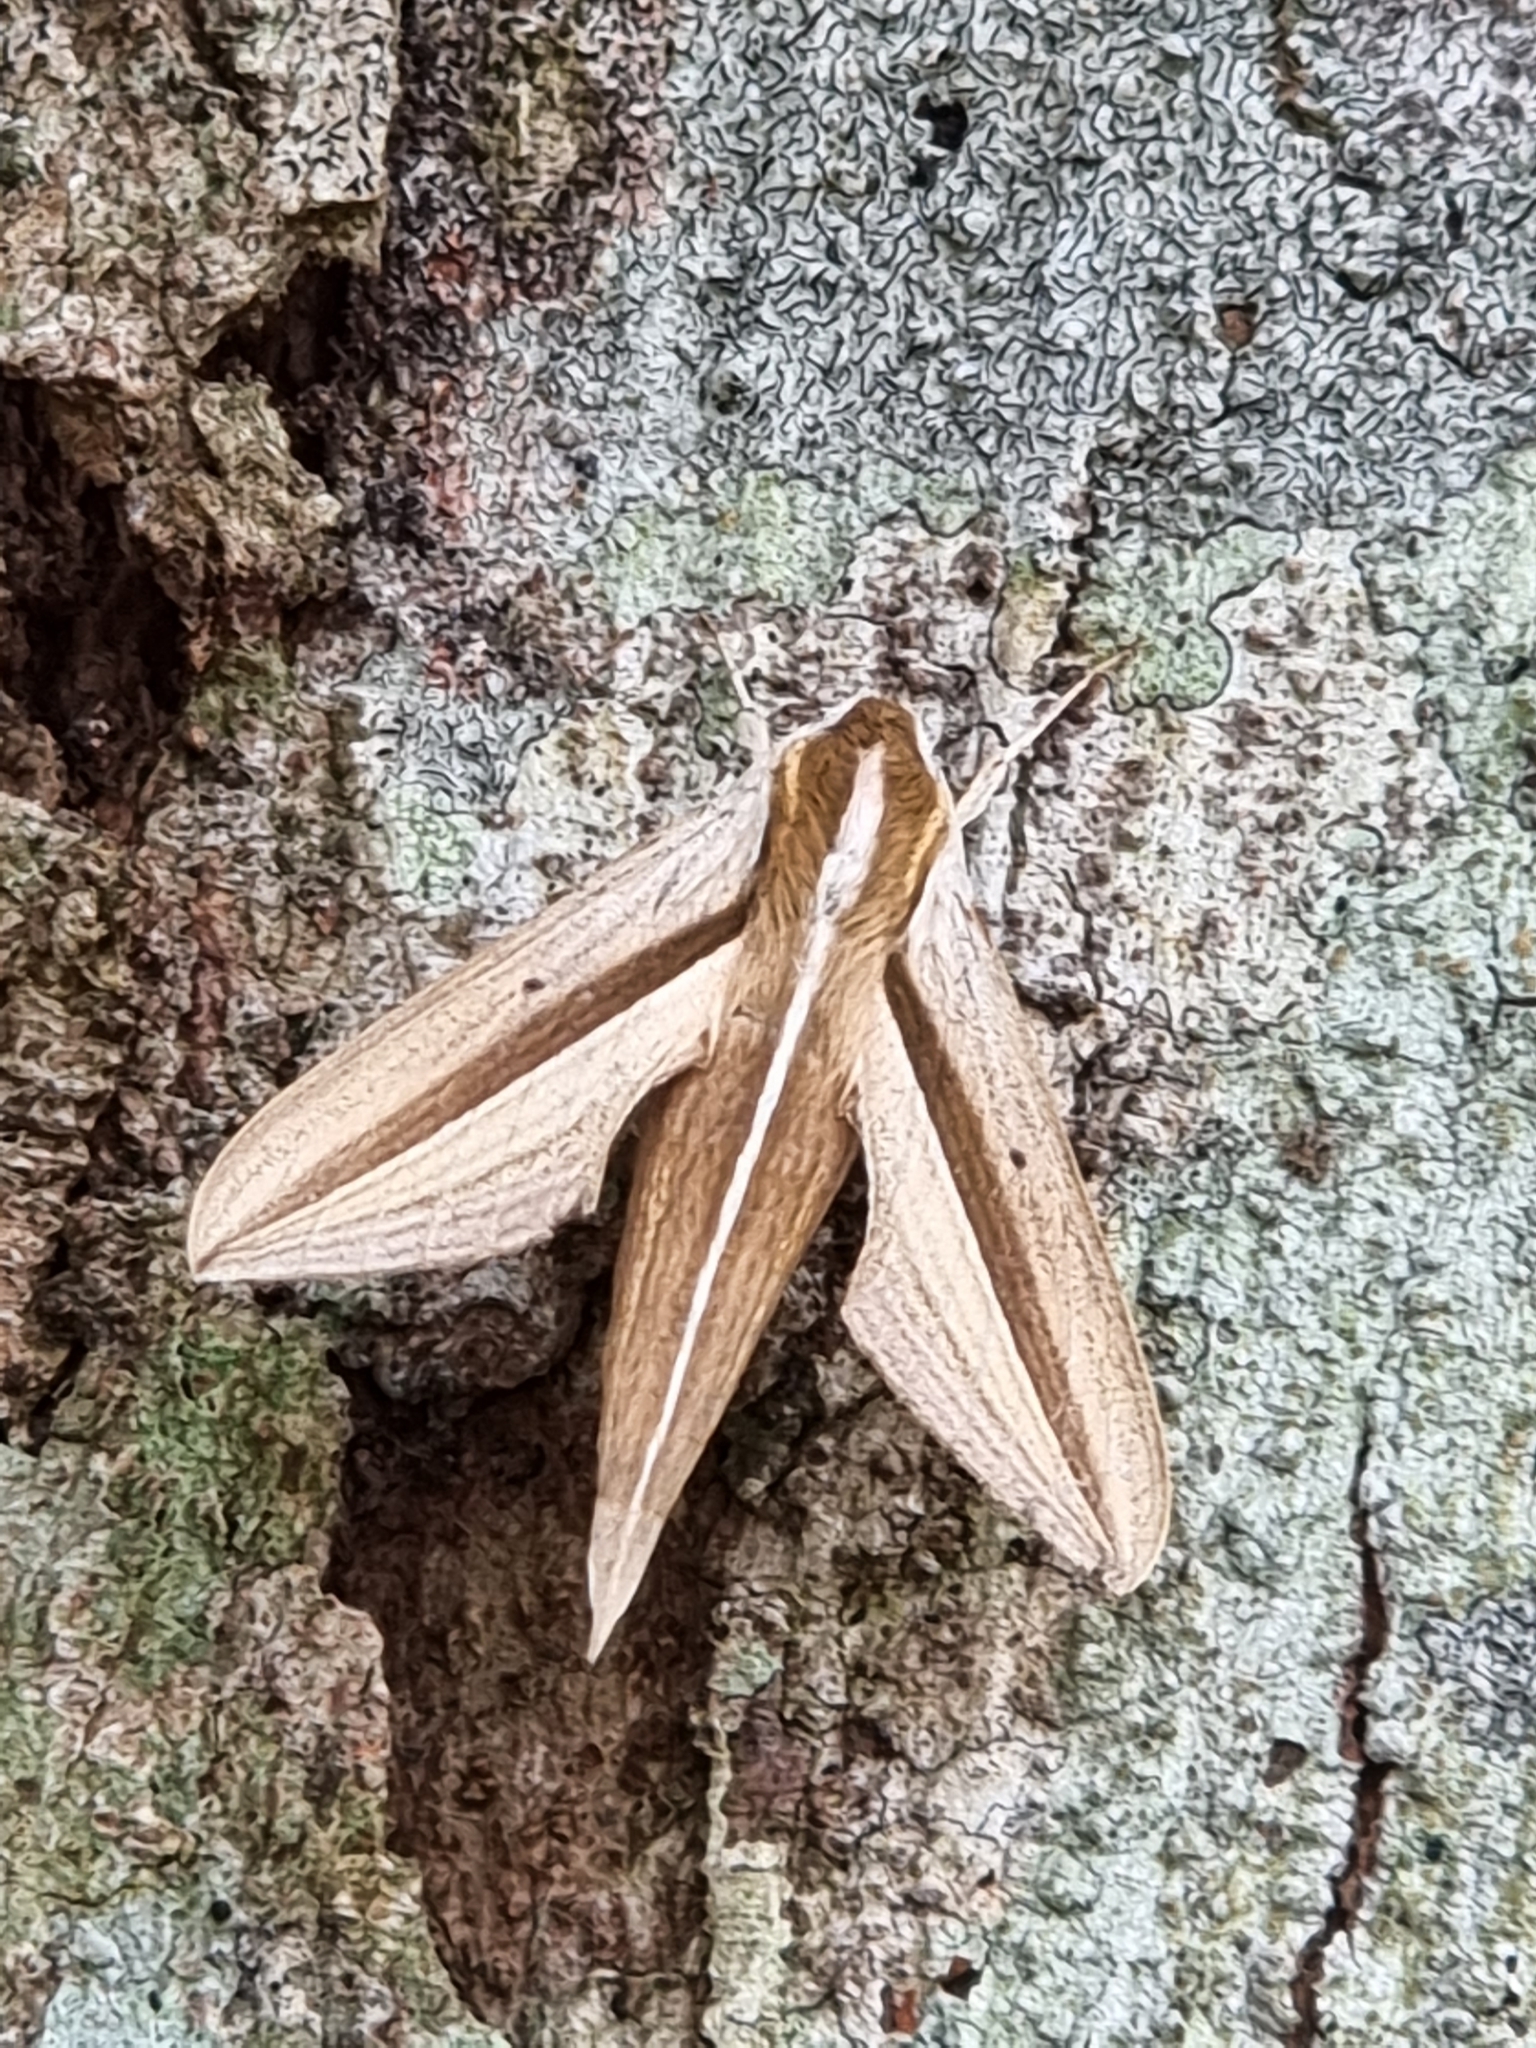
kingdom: Animalia
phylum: Arthropoda
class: Insecta
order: Lepidoptera
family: Sphingidae
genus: Theretra
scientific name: Theretra silhetensis
